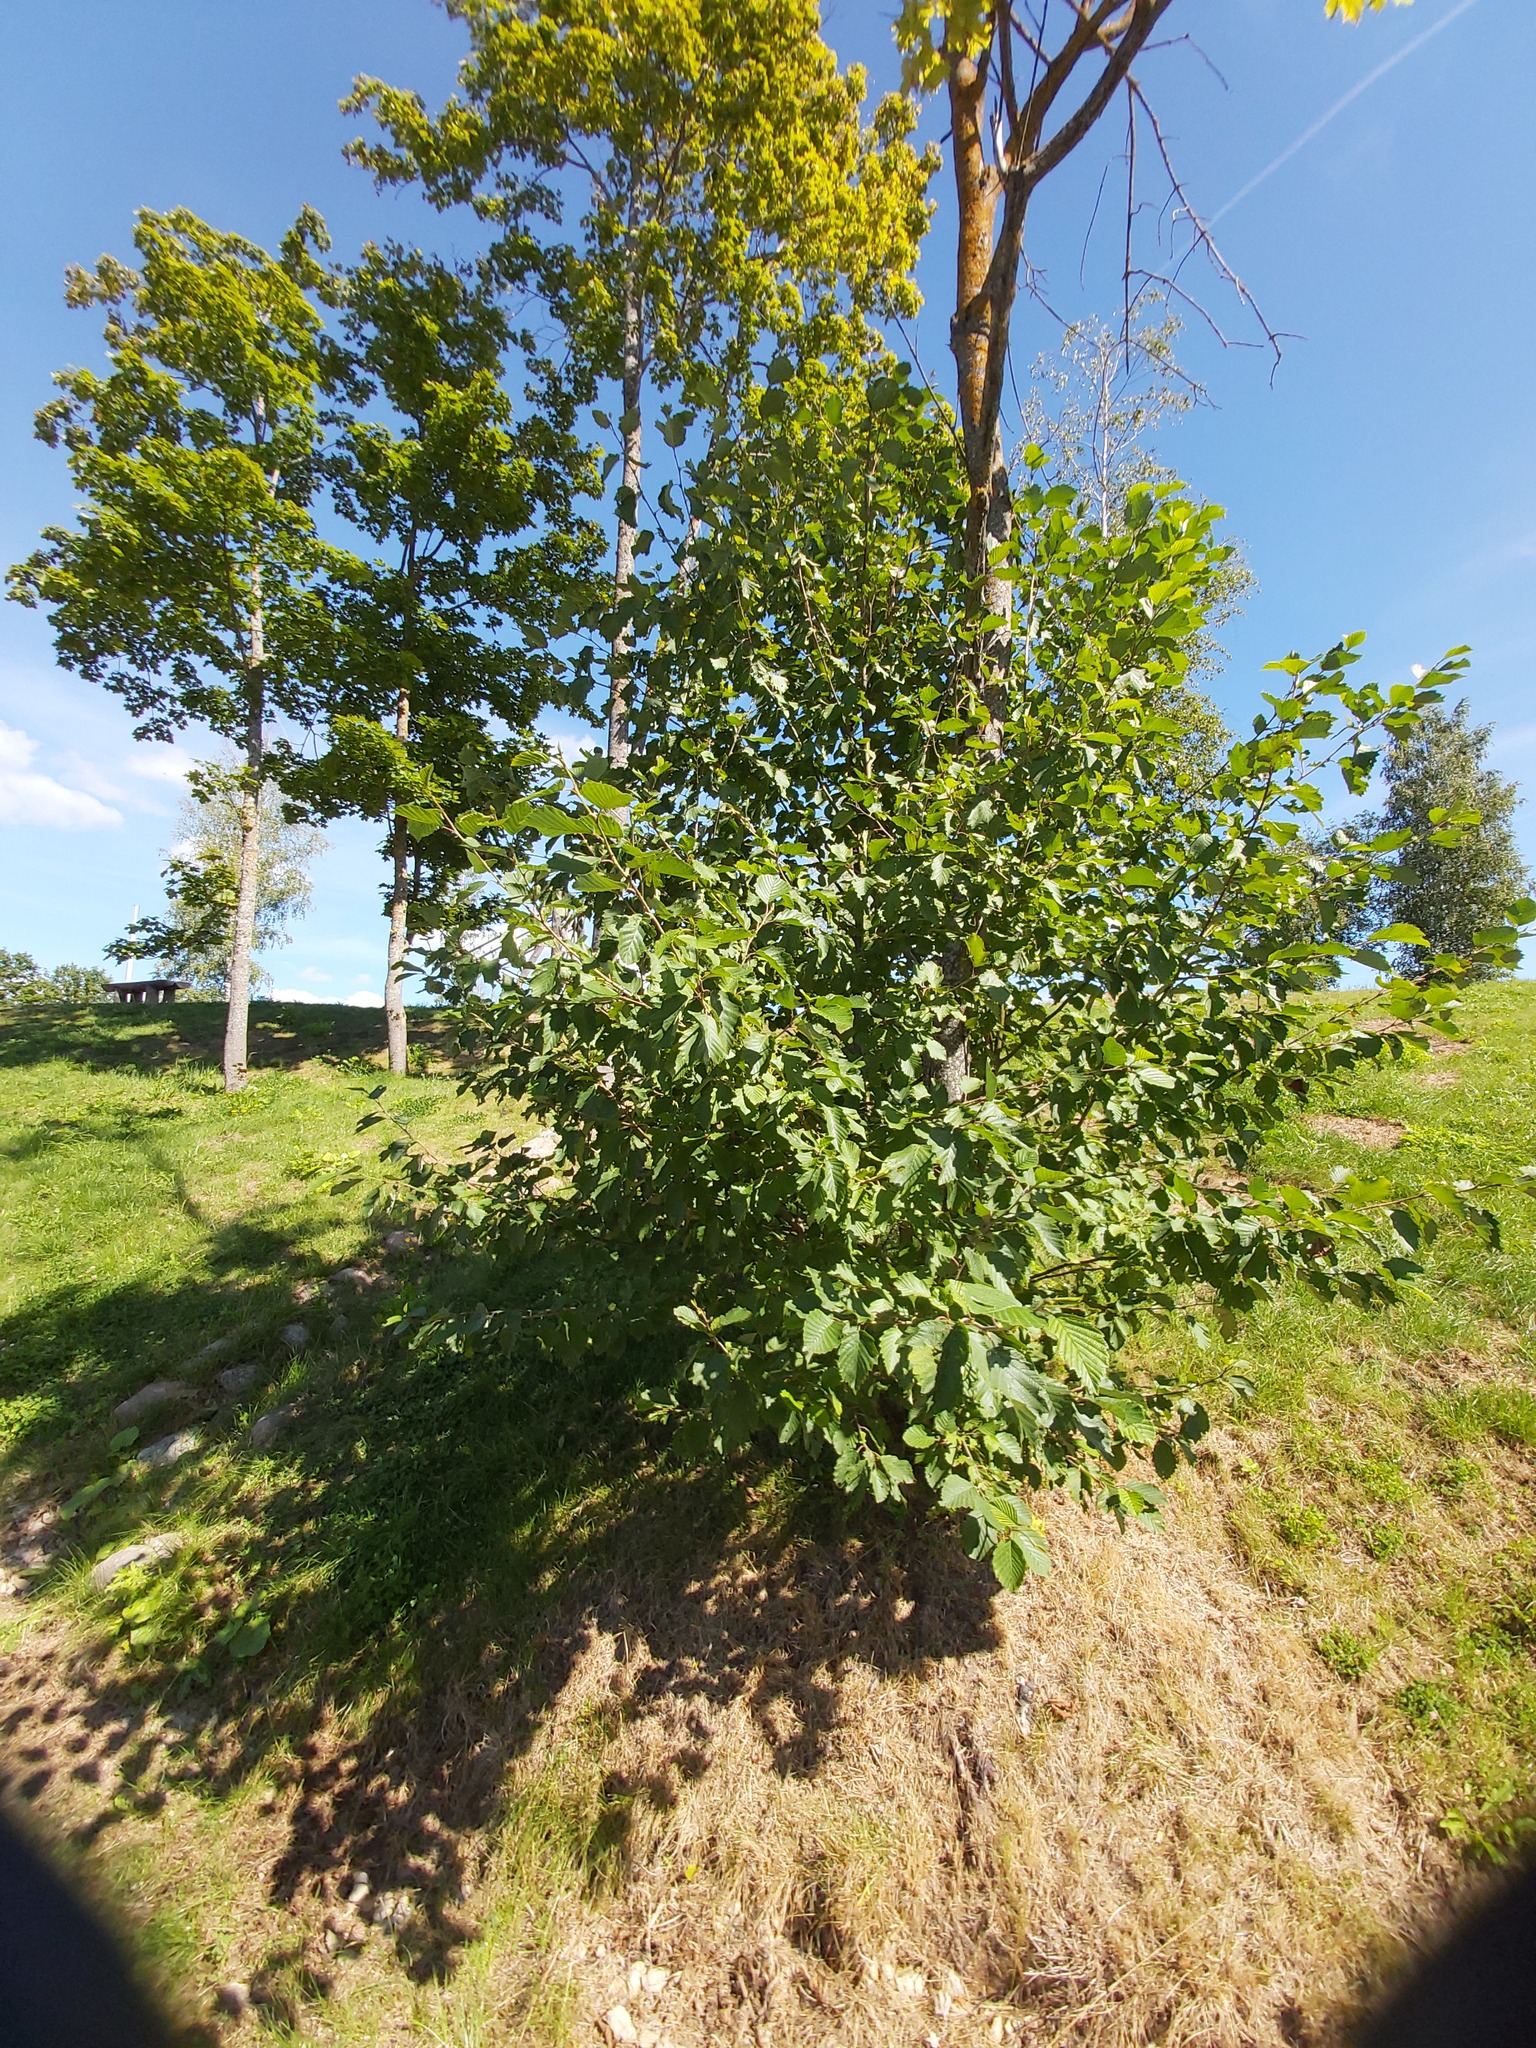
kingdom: Plantae
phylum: Tracheophyta
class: Magnoliopsida
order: Fagales
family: Betulaceae
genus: Alnus
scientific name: Alnus incana
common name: Grey alder
